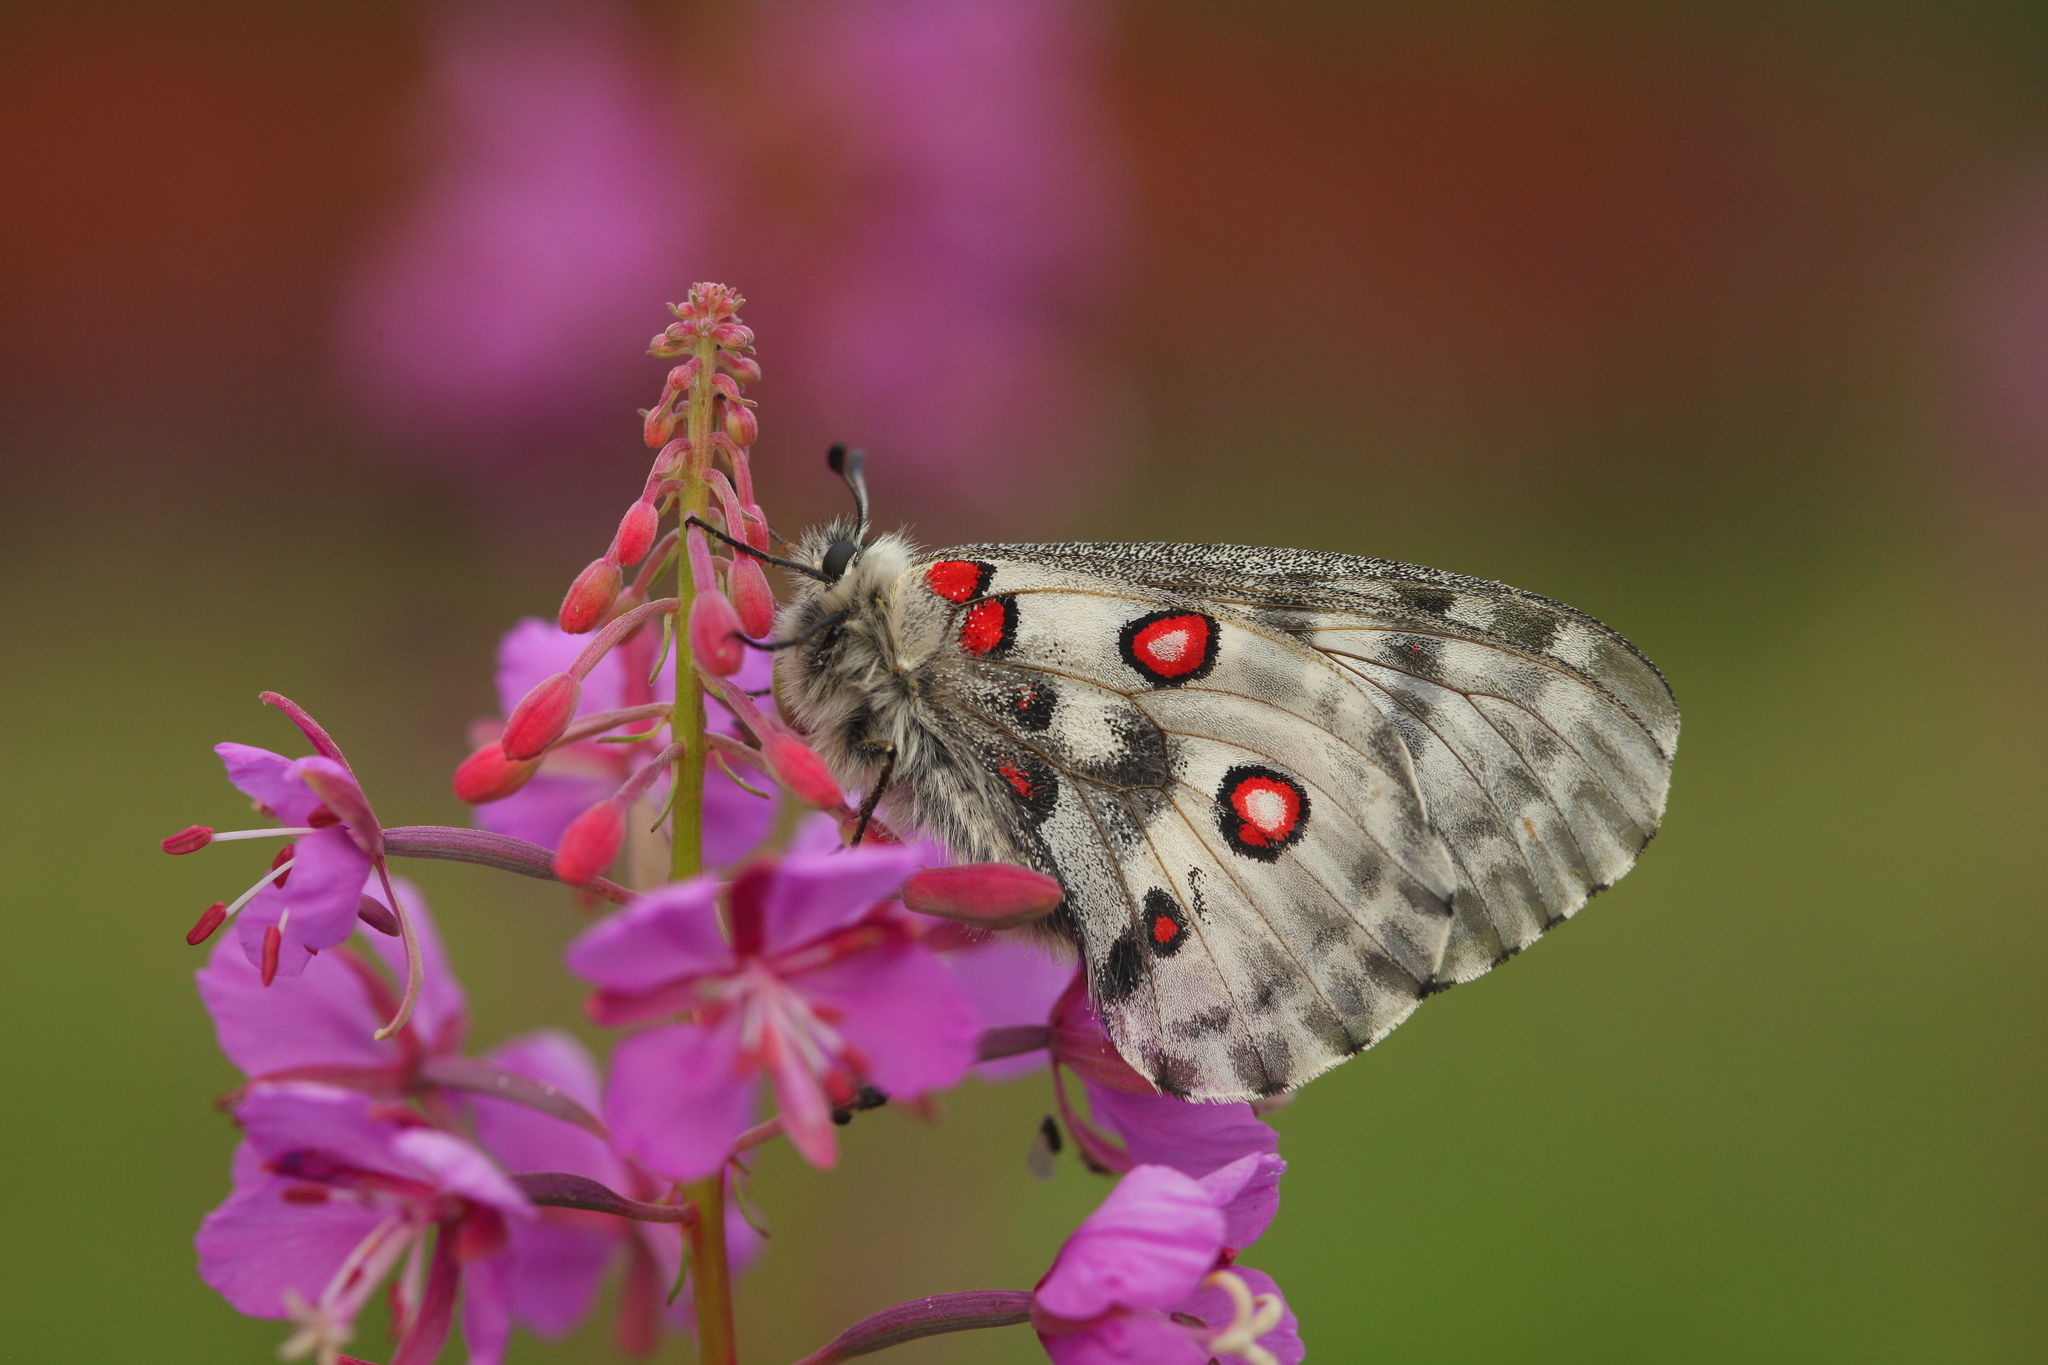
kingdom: Animalia
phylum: Arthropoda
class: Insecta
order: Lepidoptera
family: Papilionidae
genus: Parnassius
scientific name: Parnassius nomion
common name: Nomion apollo
